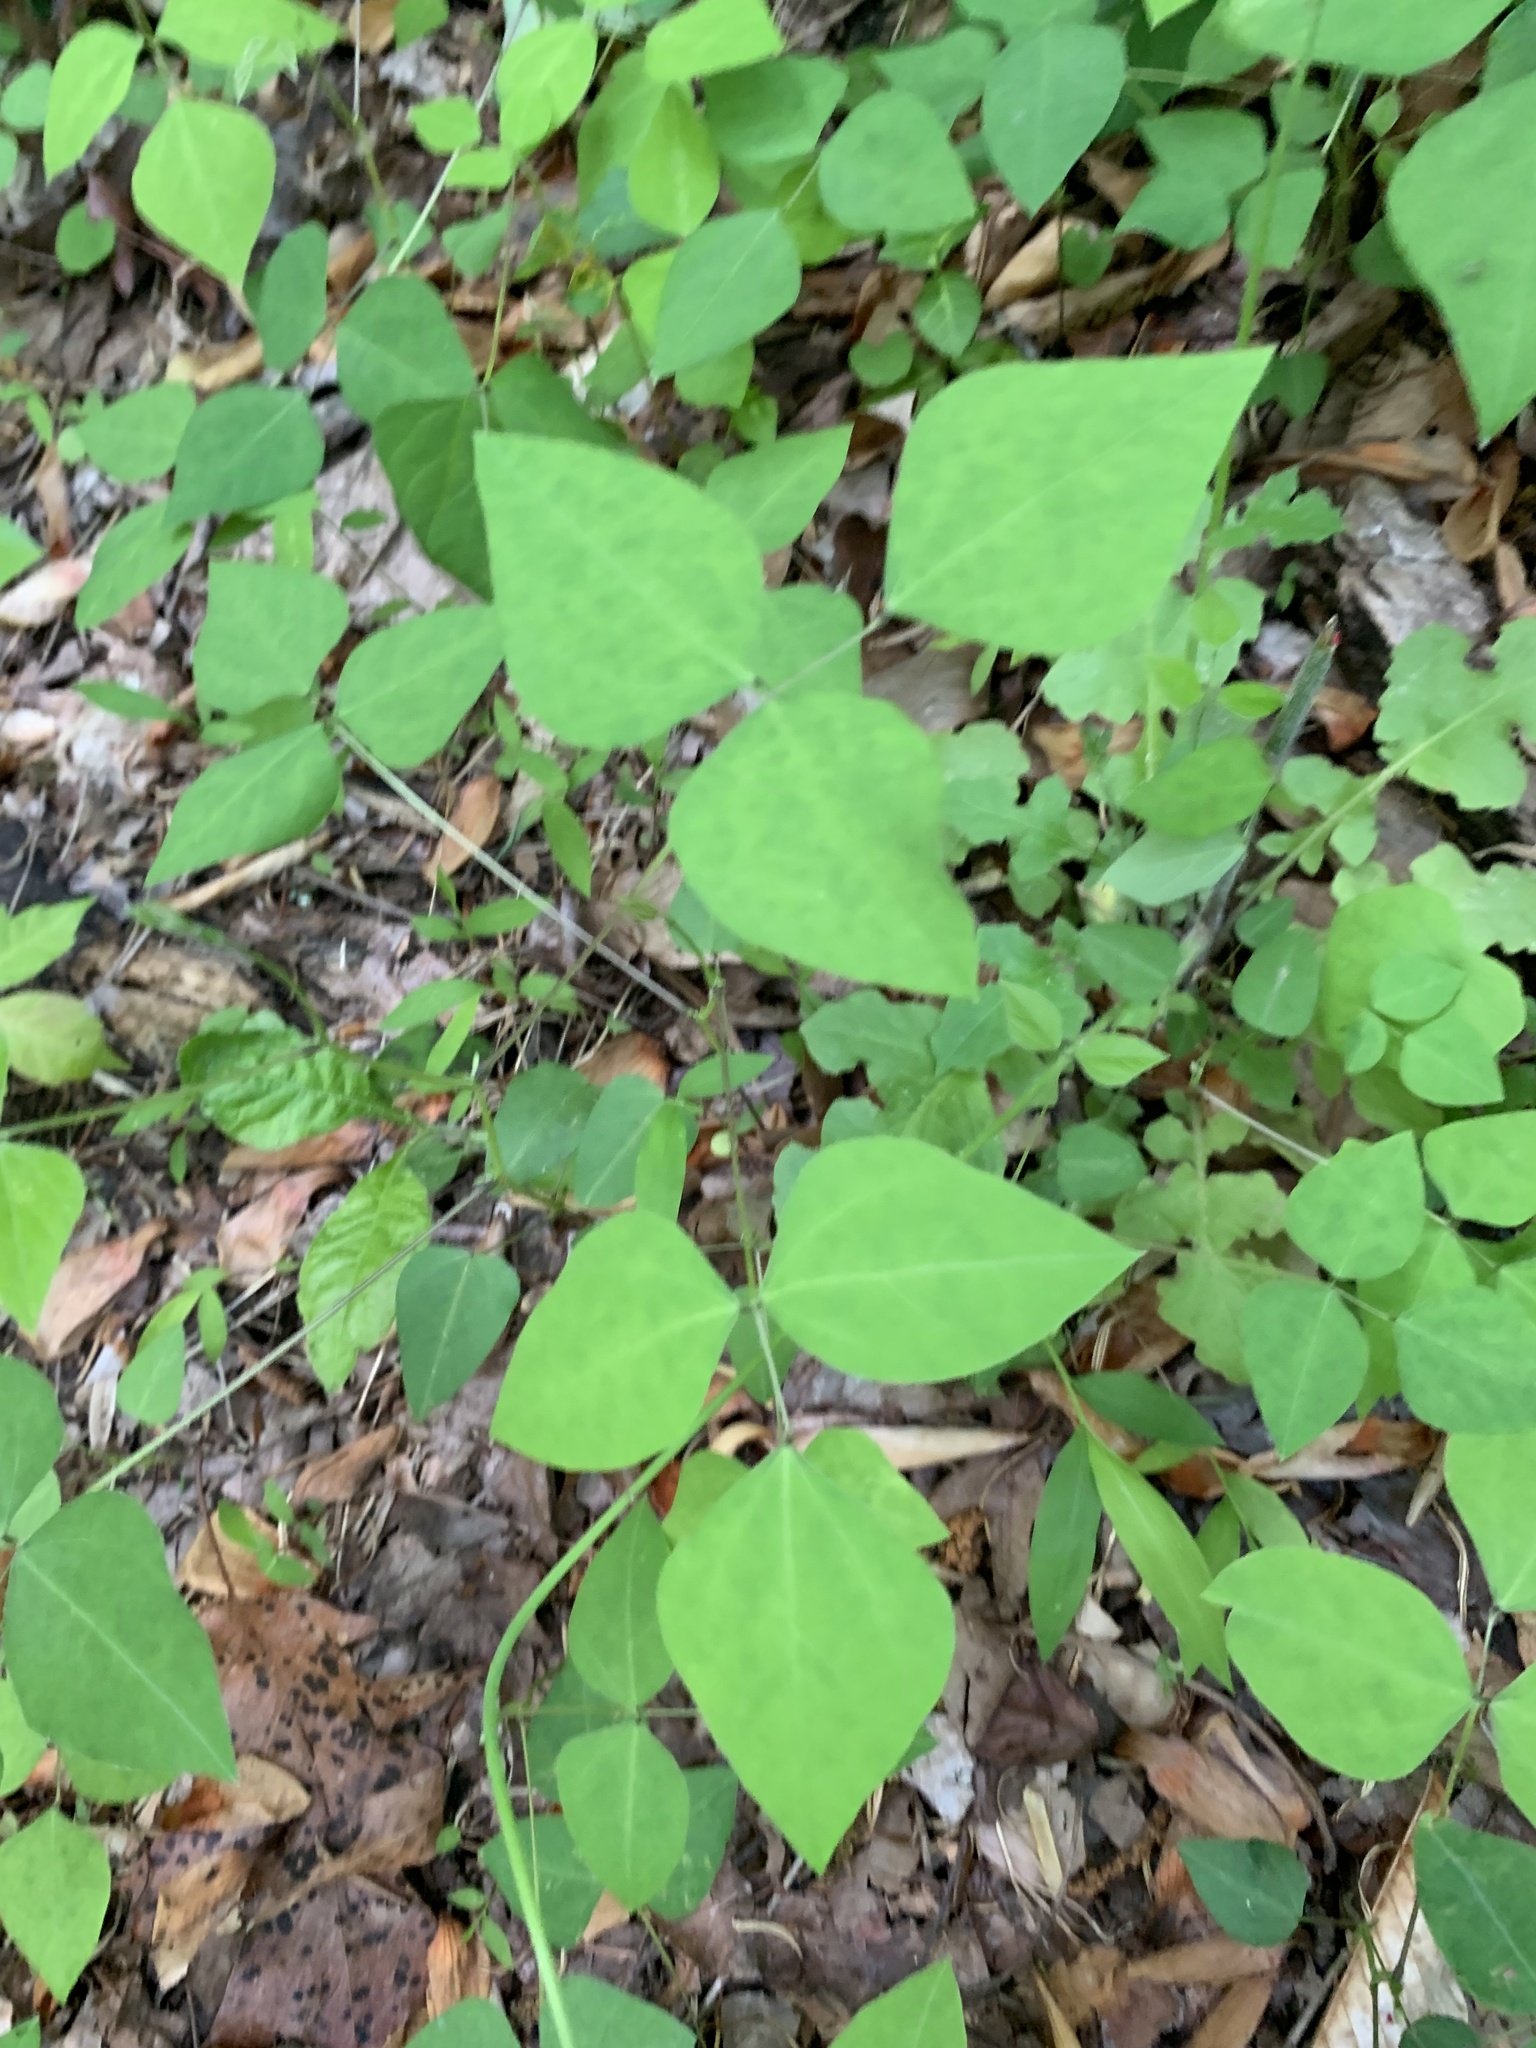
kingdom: Plantae
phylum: Tracheophyta
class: Magnoliopsida
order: Fabales
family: Fabaceae
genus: Amphicarpaea
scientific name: Amphicarpaea bracteata
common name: American hog peanut
